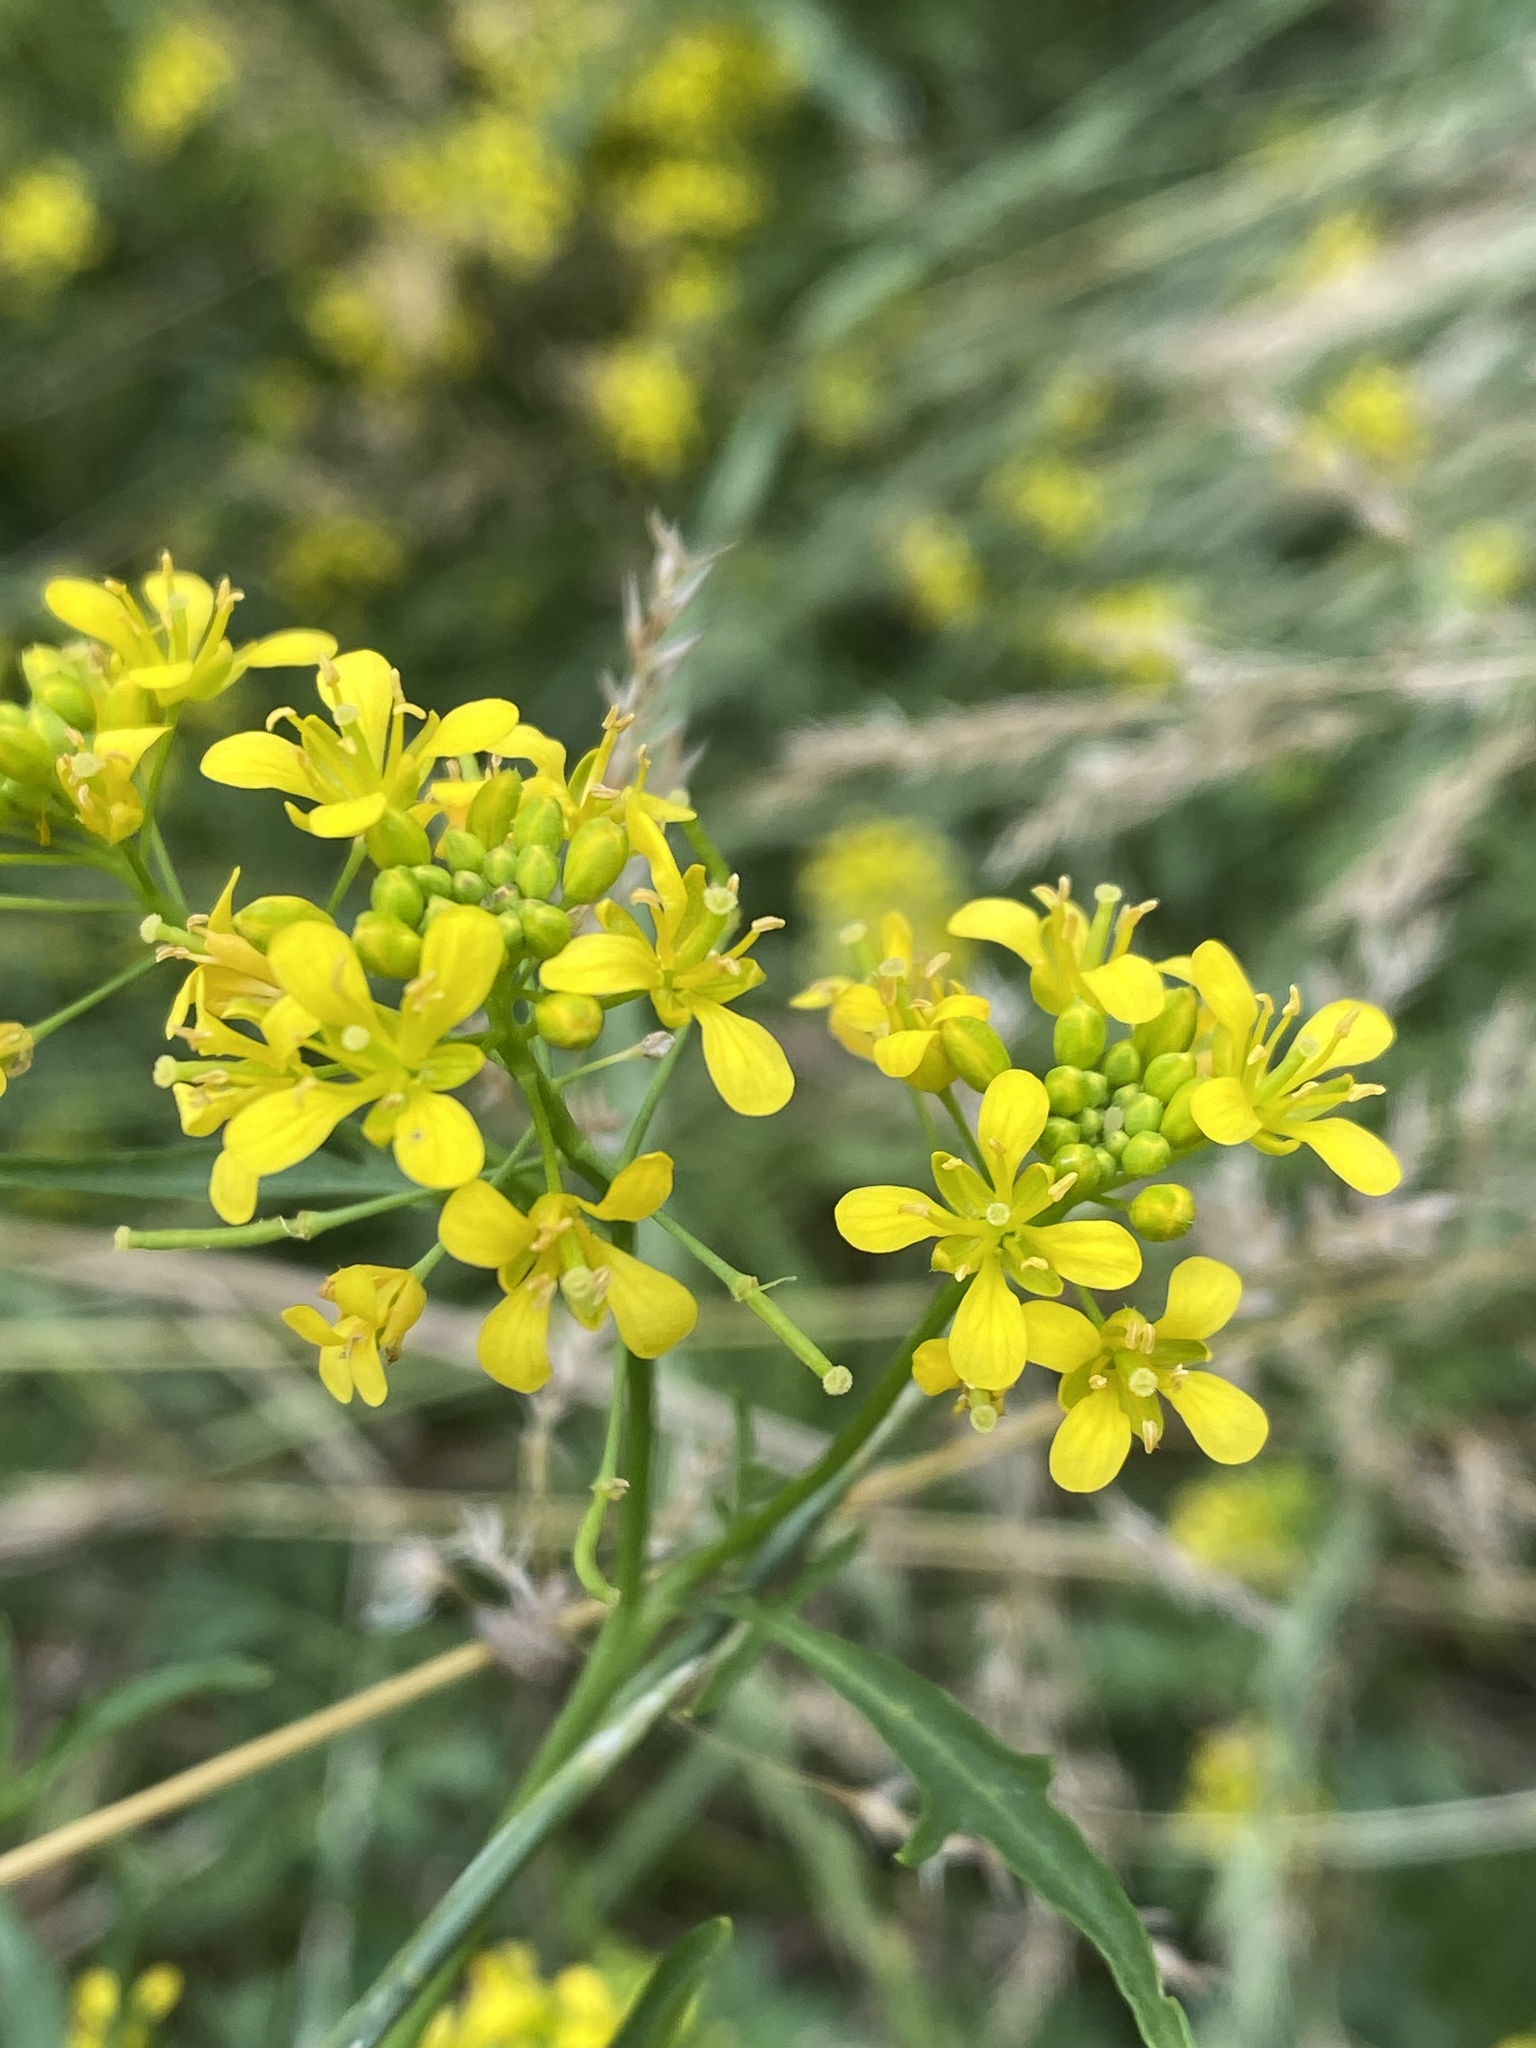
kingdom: Plantae
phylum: Tracheophyta
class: Magnoliopsida
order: Brassicales
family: Brassicaceae
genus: Rorippa
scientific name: Rorippa sylvestris
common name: Creeping yellowcress
